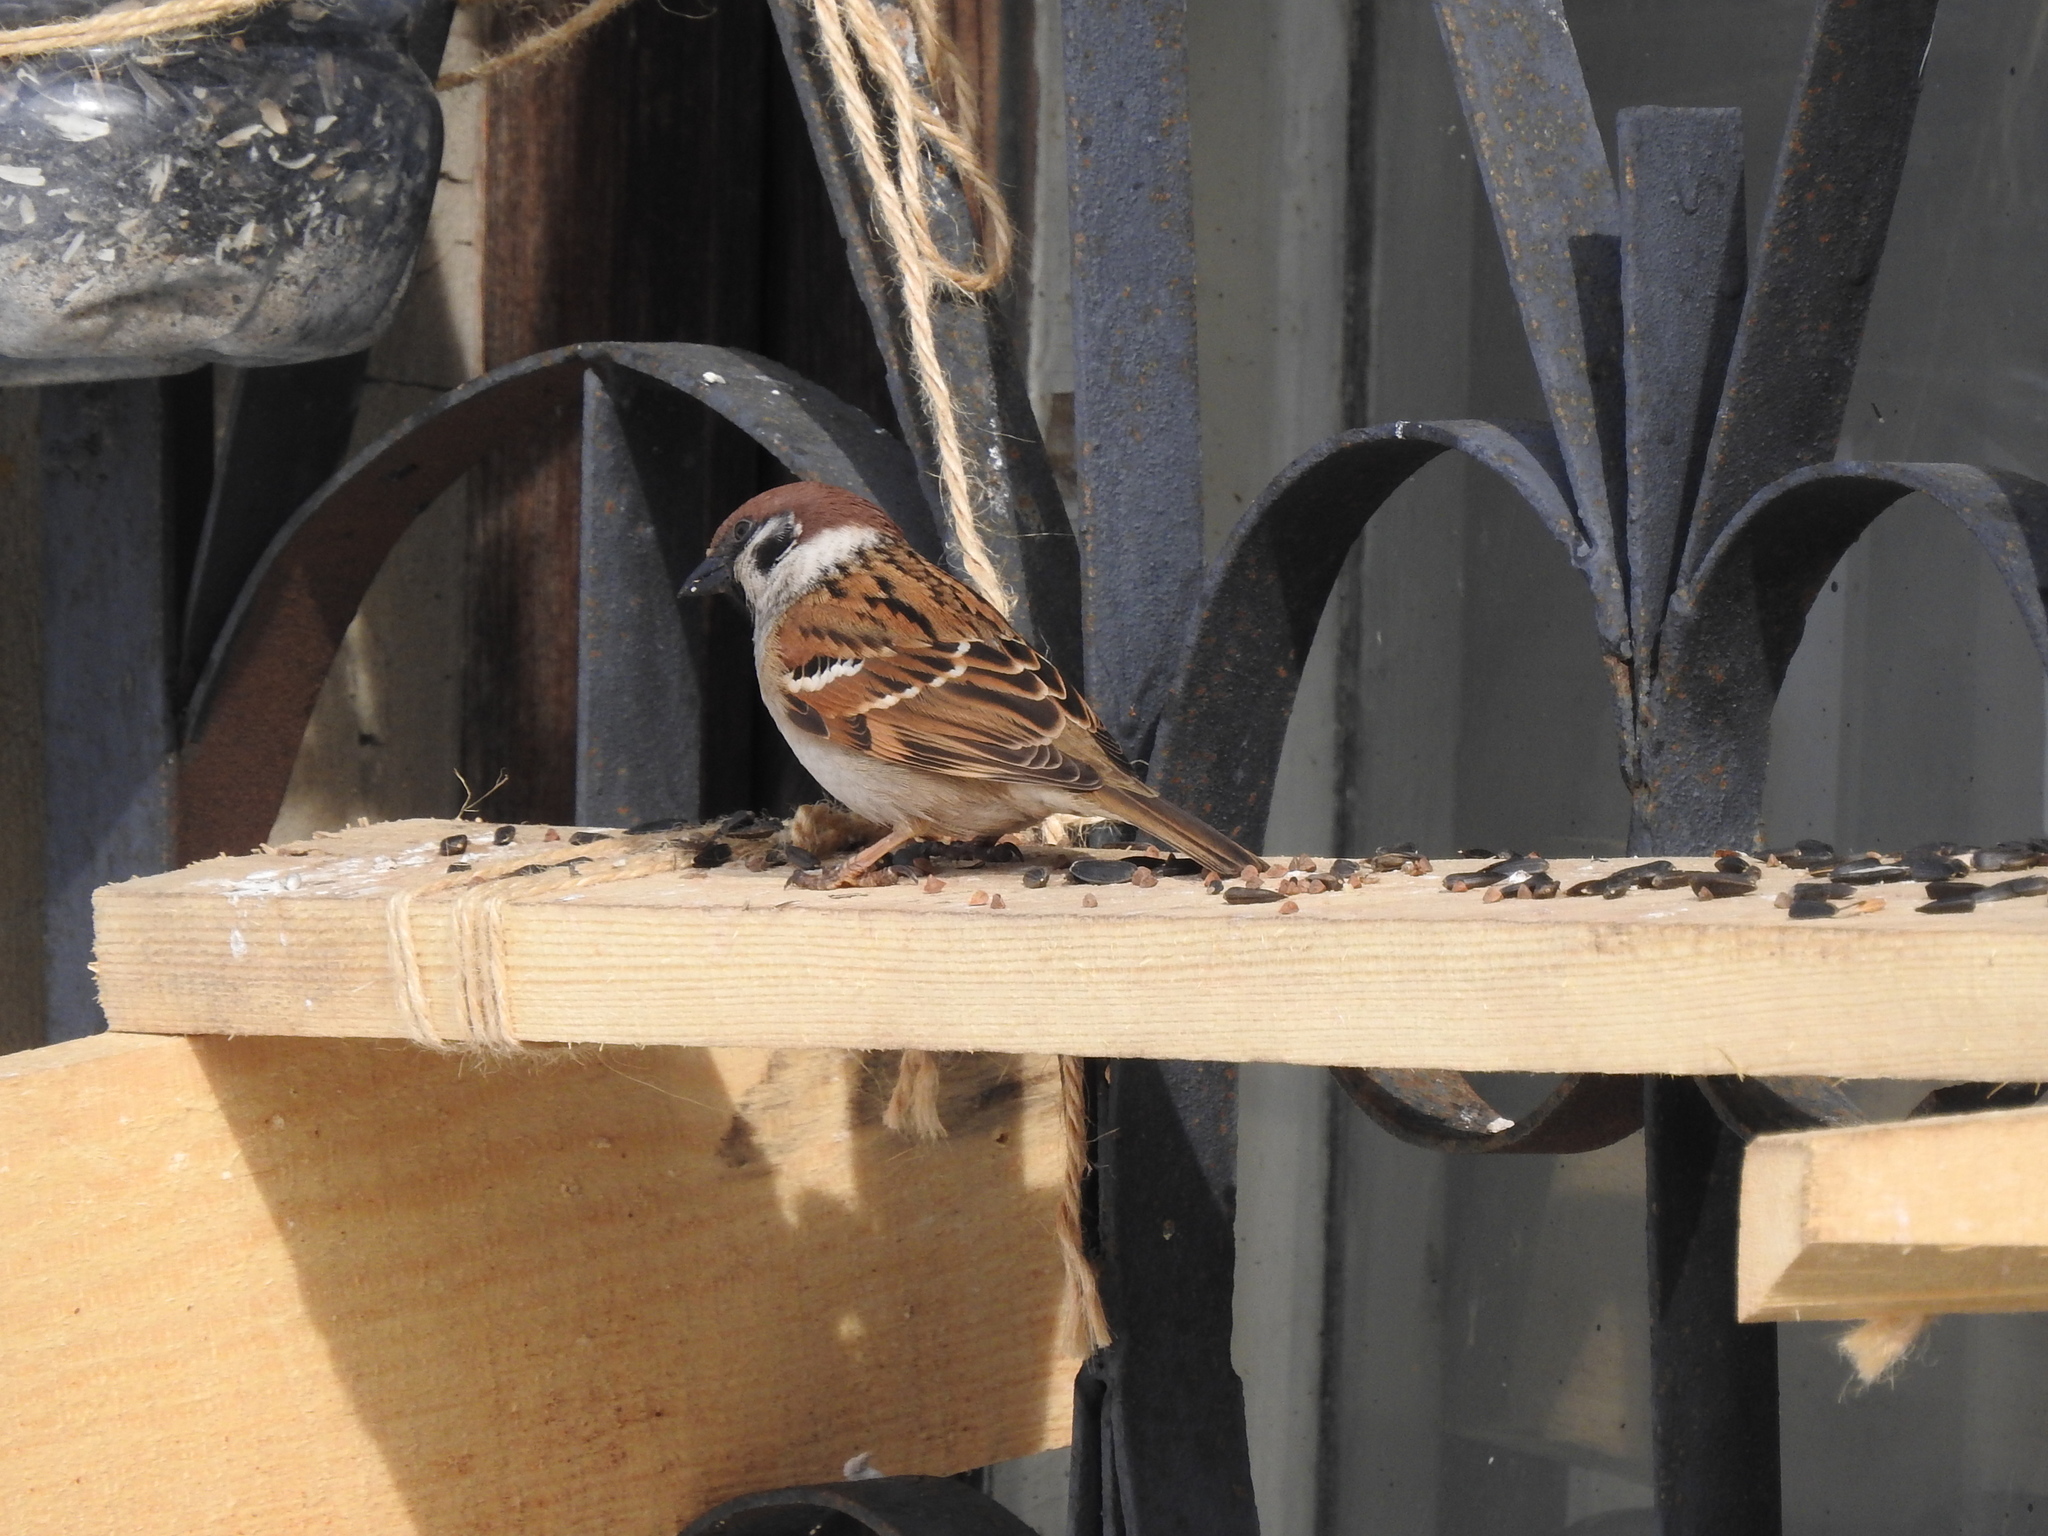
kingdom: Animalia
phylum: Chordata
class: Aves
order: Passeriformes
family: Passeridae
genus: Passer
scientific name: Passer montanus
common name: Eurasian tree sparrow
